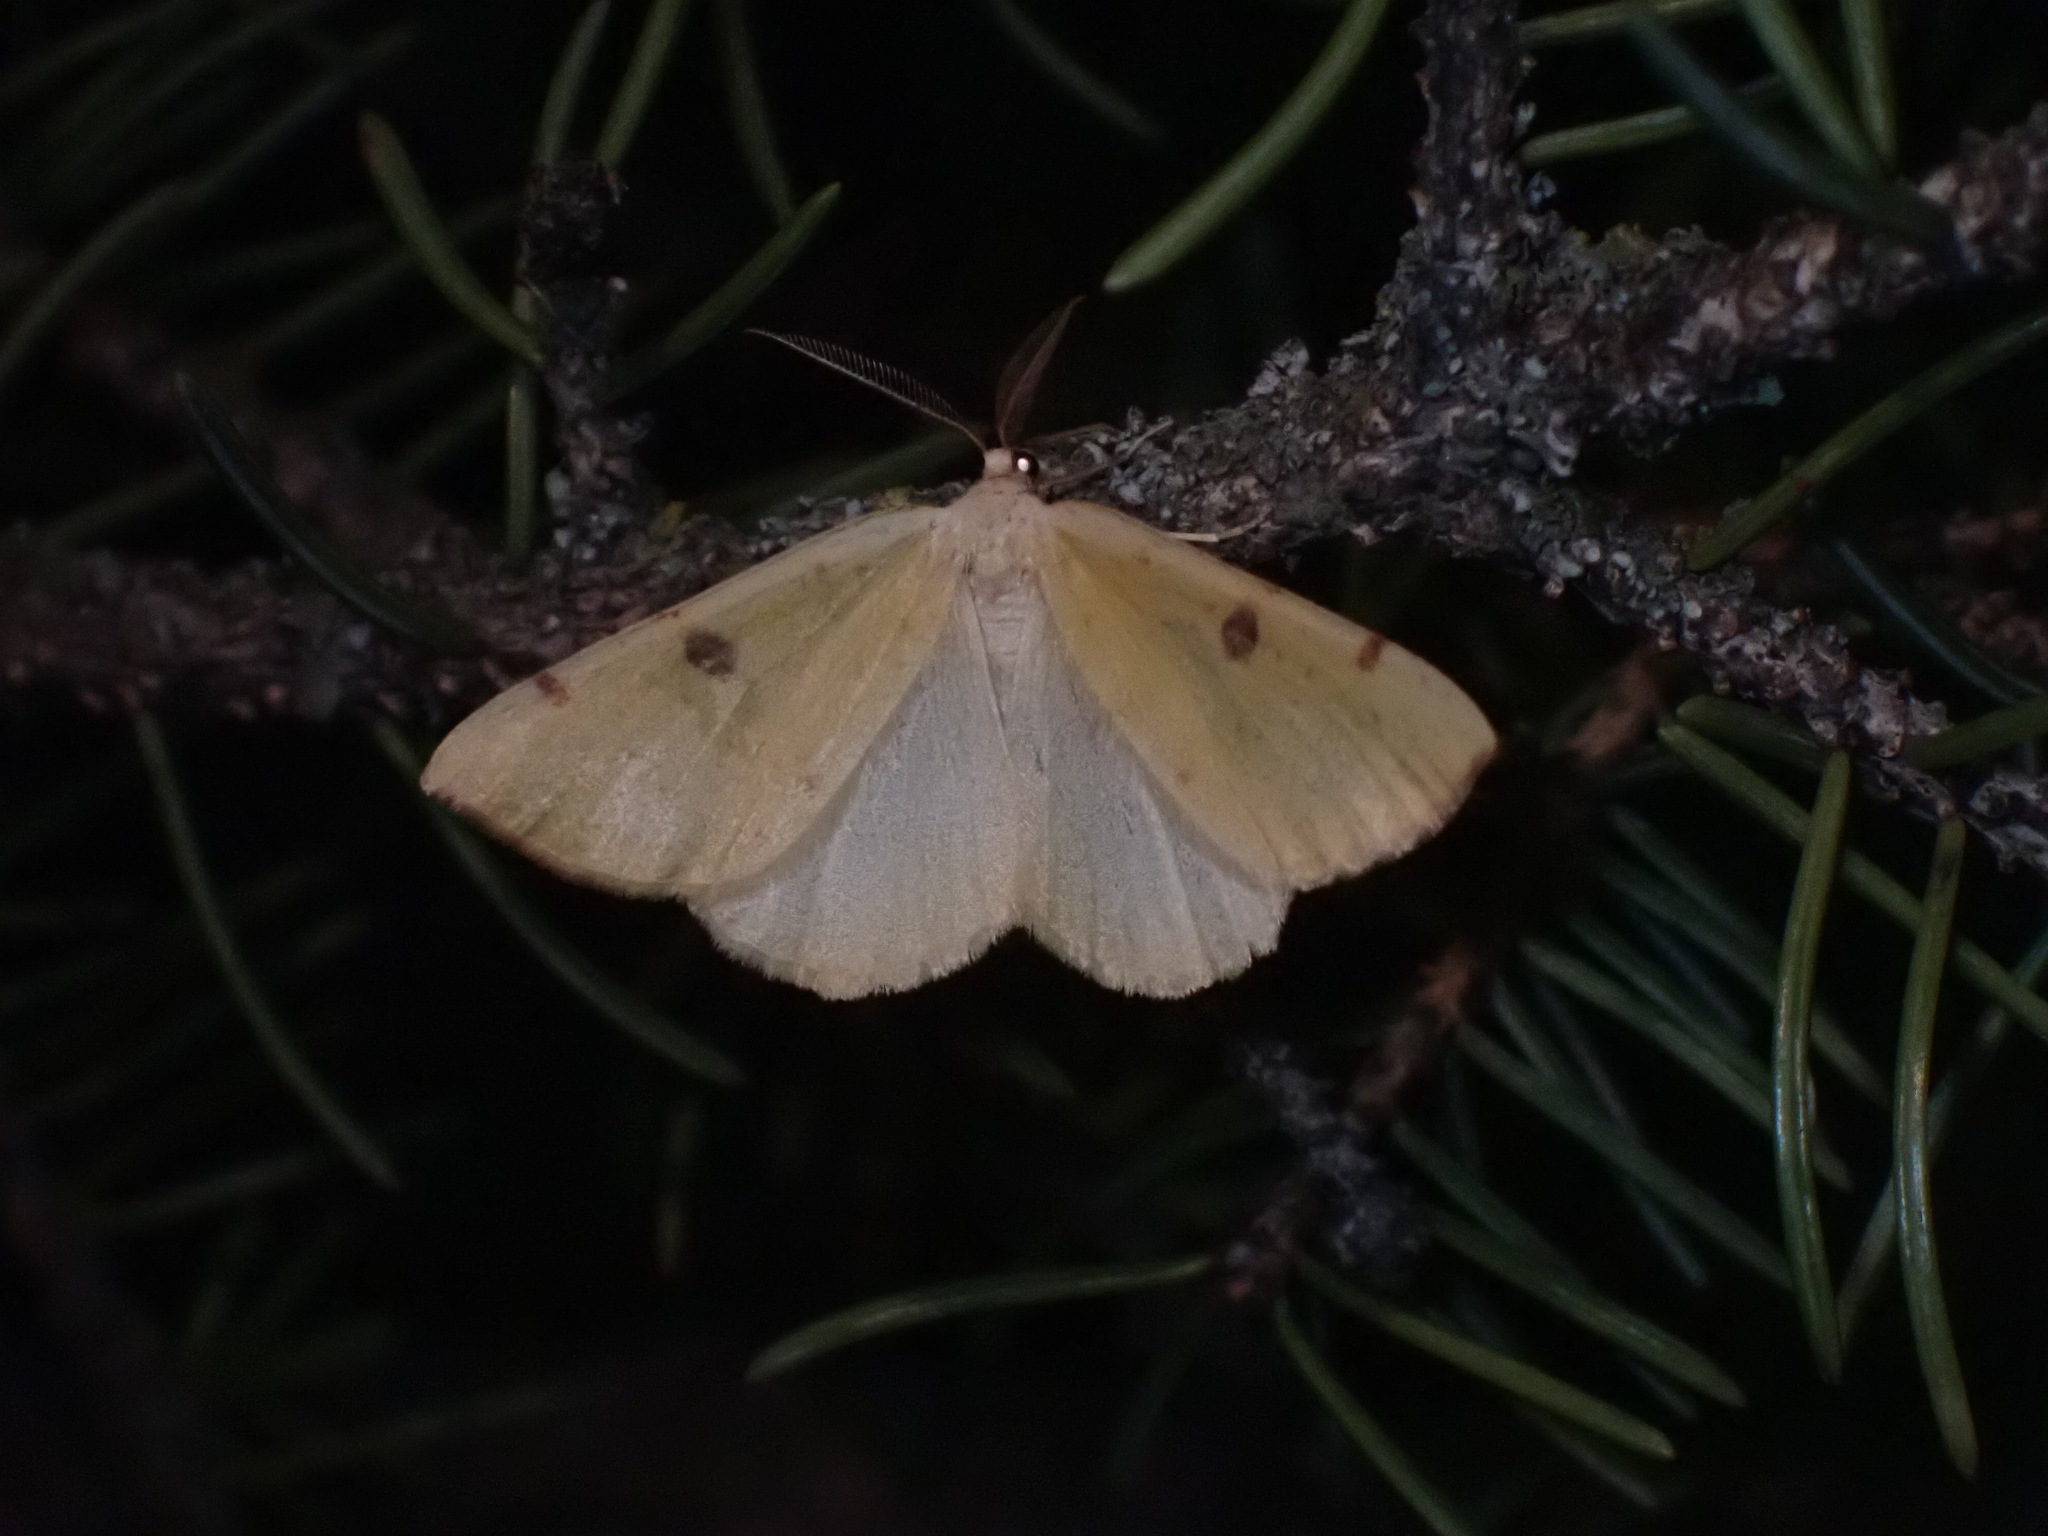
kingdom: Animalia
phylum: Arthropoda
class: Insecta
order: Lepidoptera
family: Geometridae
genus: Hesperumia
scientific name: Hesperumia sulphuraria
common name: Sulphur moth
